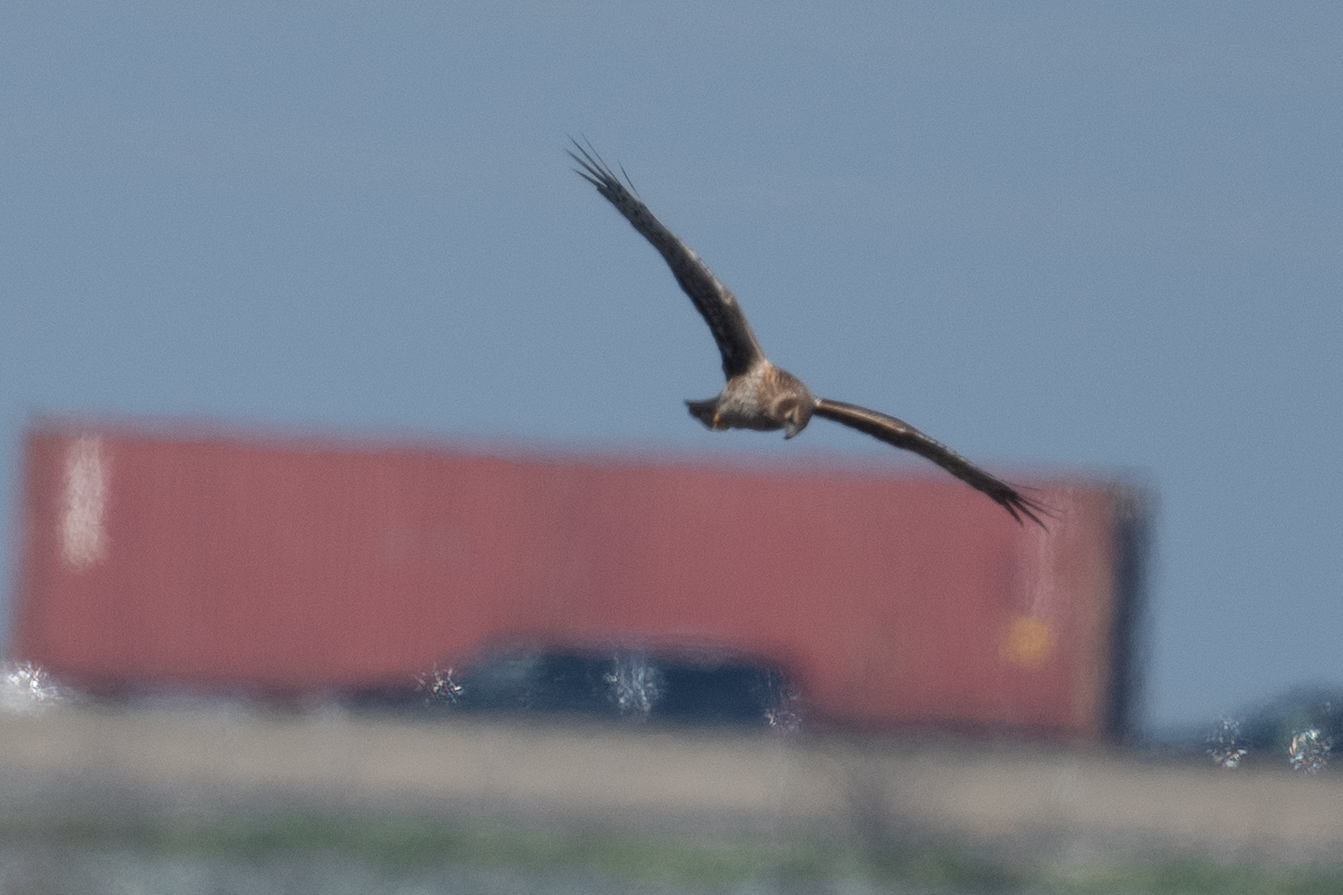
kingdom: Animalia
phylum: Chordata
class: Aves
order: Accipitriformes
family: Accipitridae
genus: Circus
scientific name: Circus cyaneus
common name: Hen harrier
